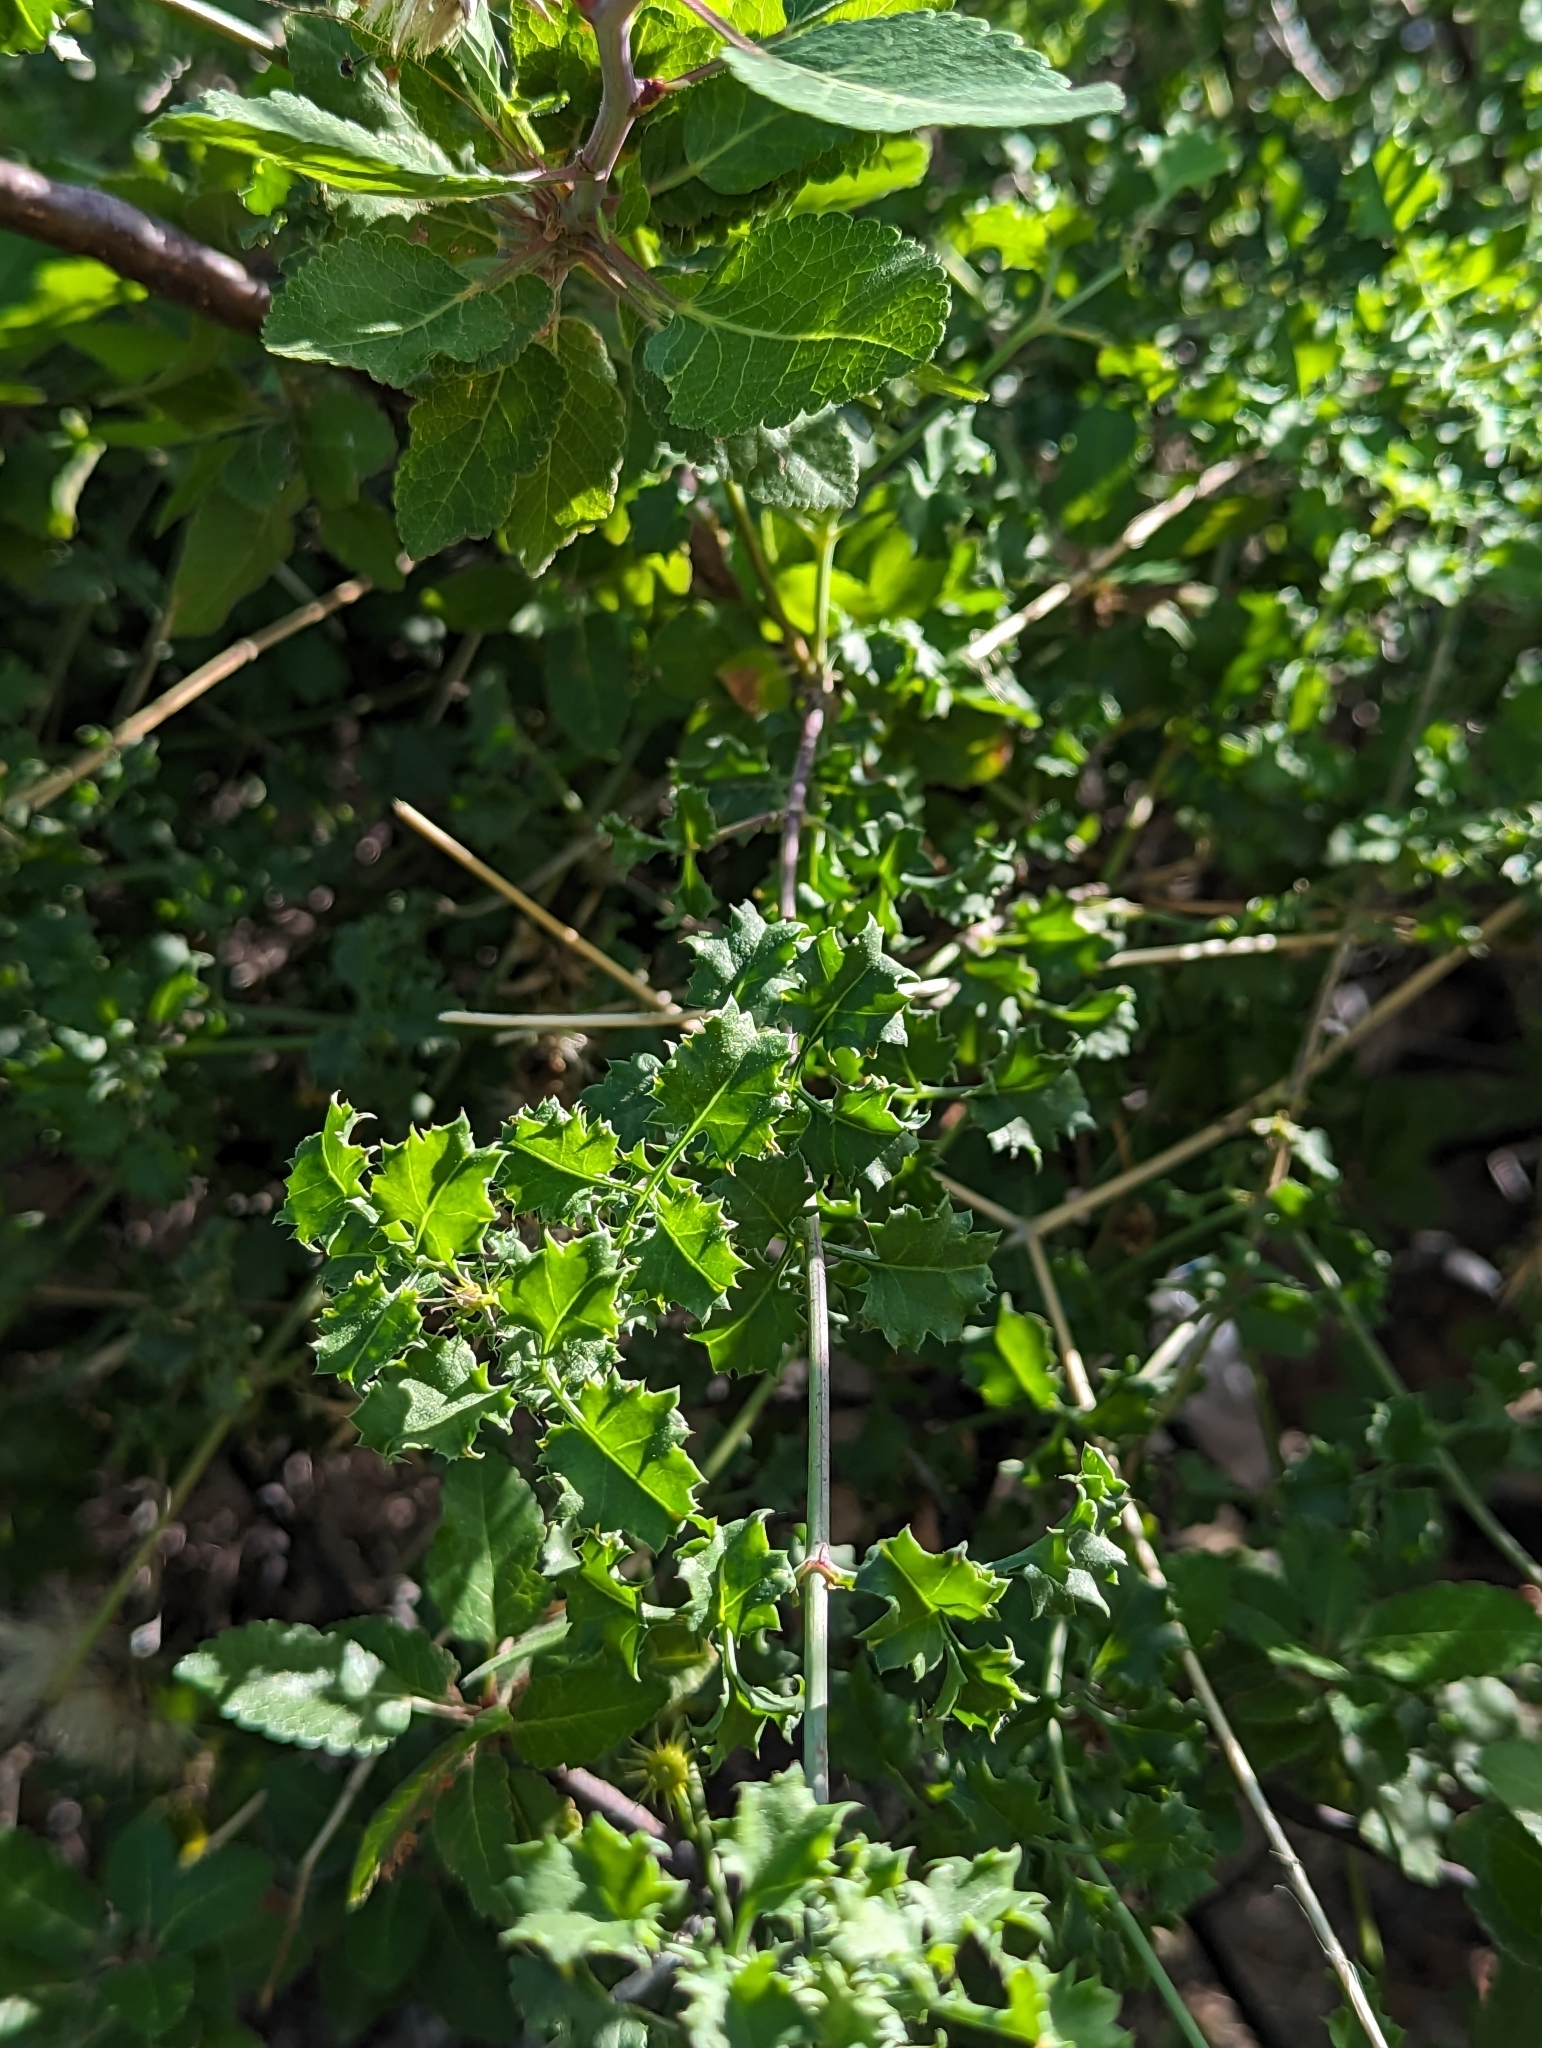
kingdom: Plantae
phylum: Tracheophyta
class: Magnoliopsida
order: Asterales
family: Asteraceae
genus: Adenophyllum
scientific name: Adenophyllum speciosum
